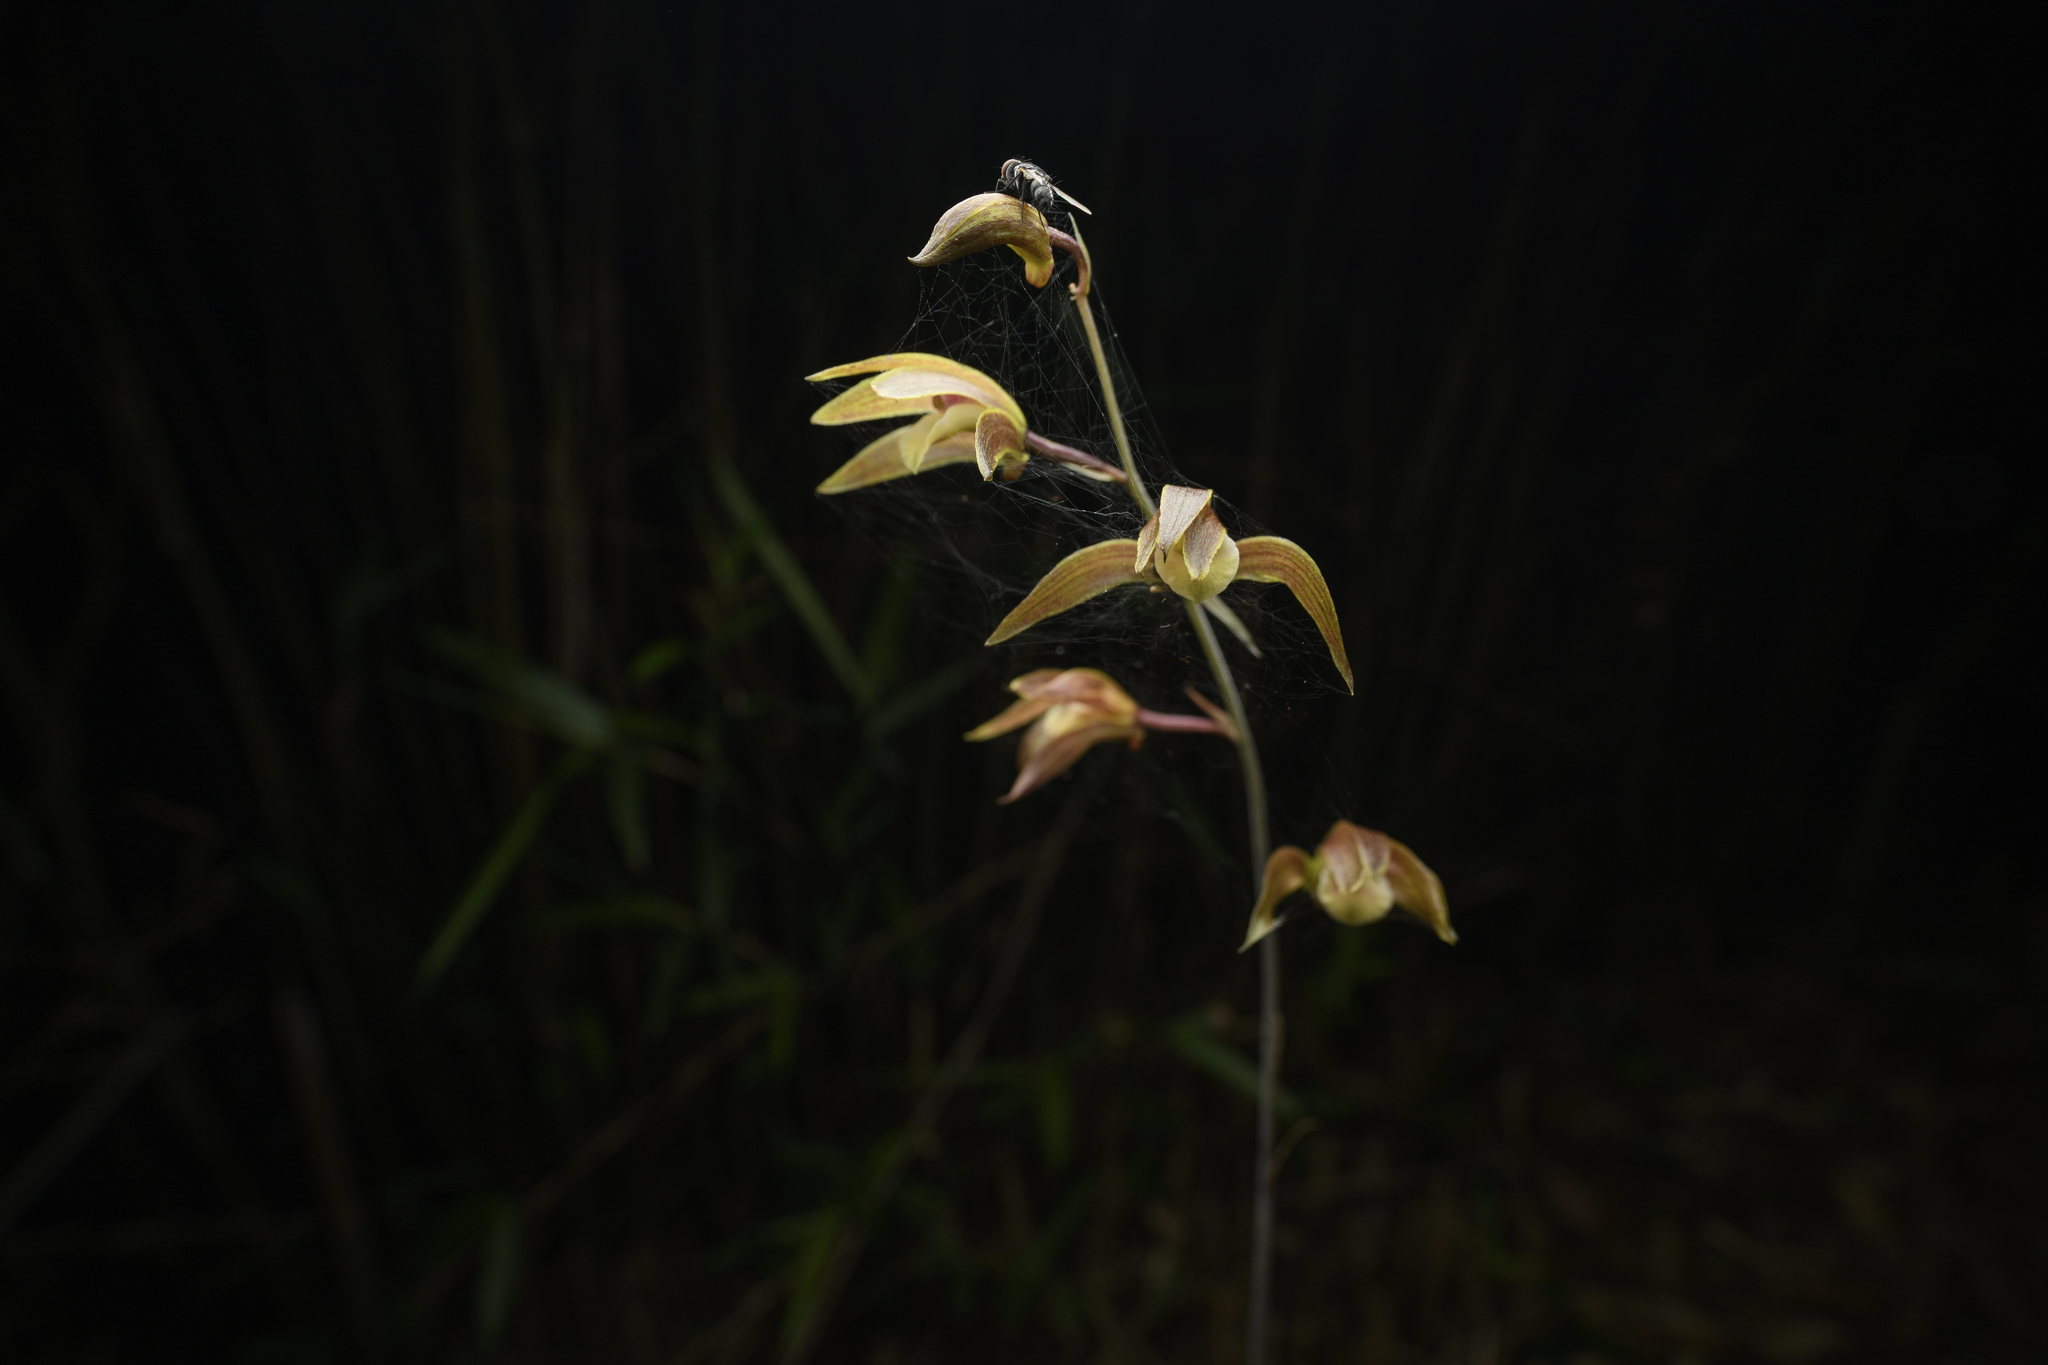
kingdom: Plantae
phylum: Tracheophyta
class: Liliopsida
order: Asparagales
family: Orchidaceae
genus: Ania
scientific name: Ania hongkongensis
